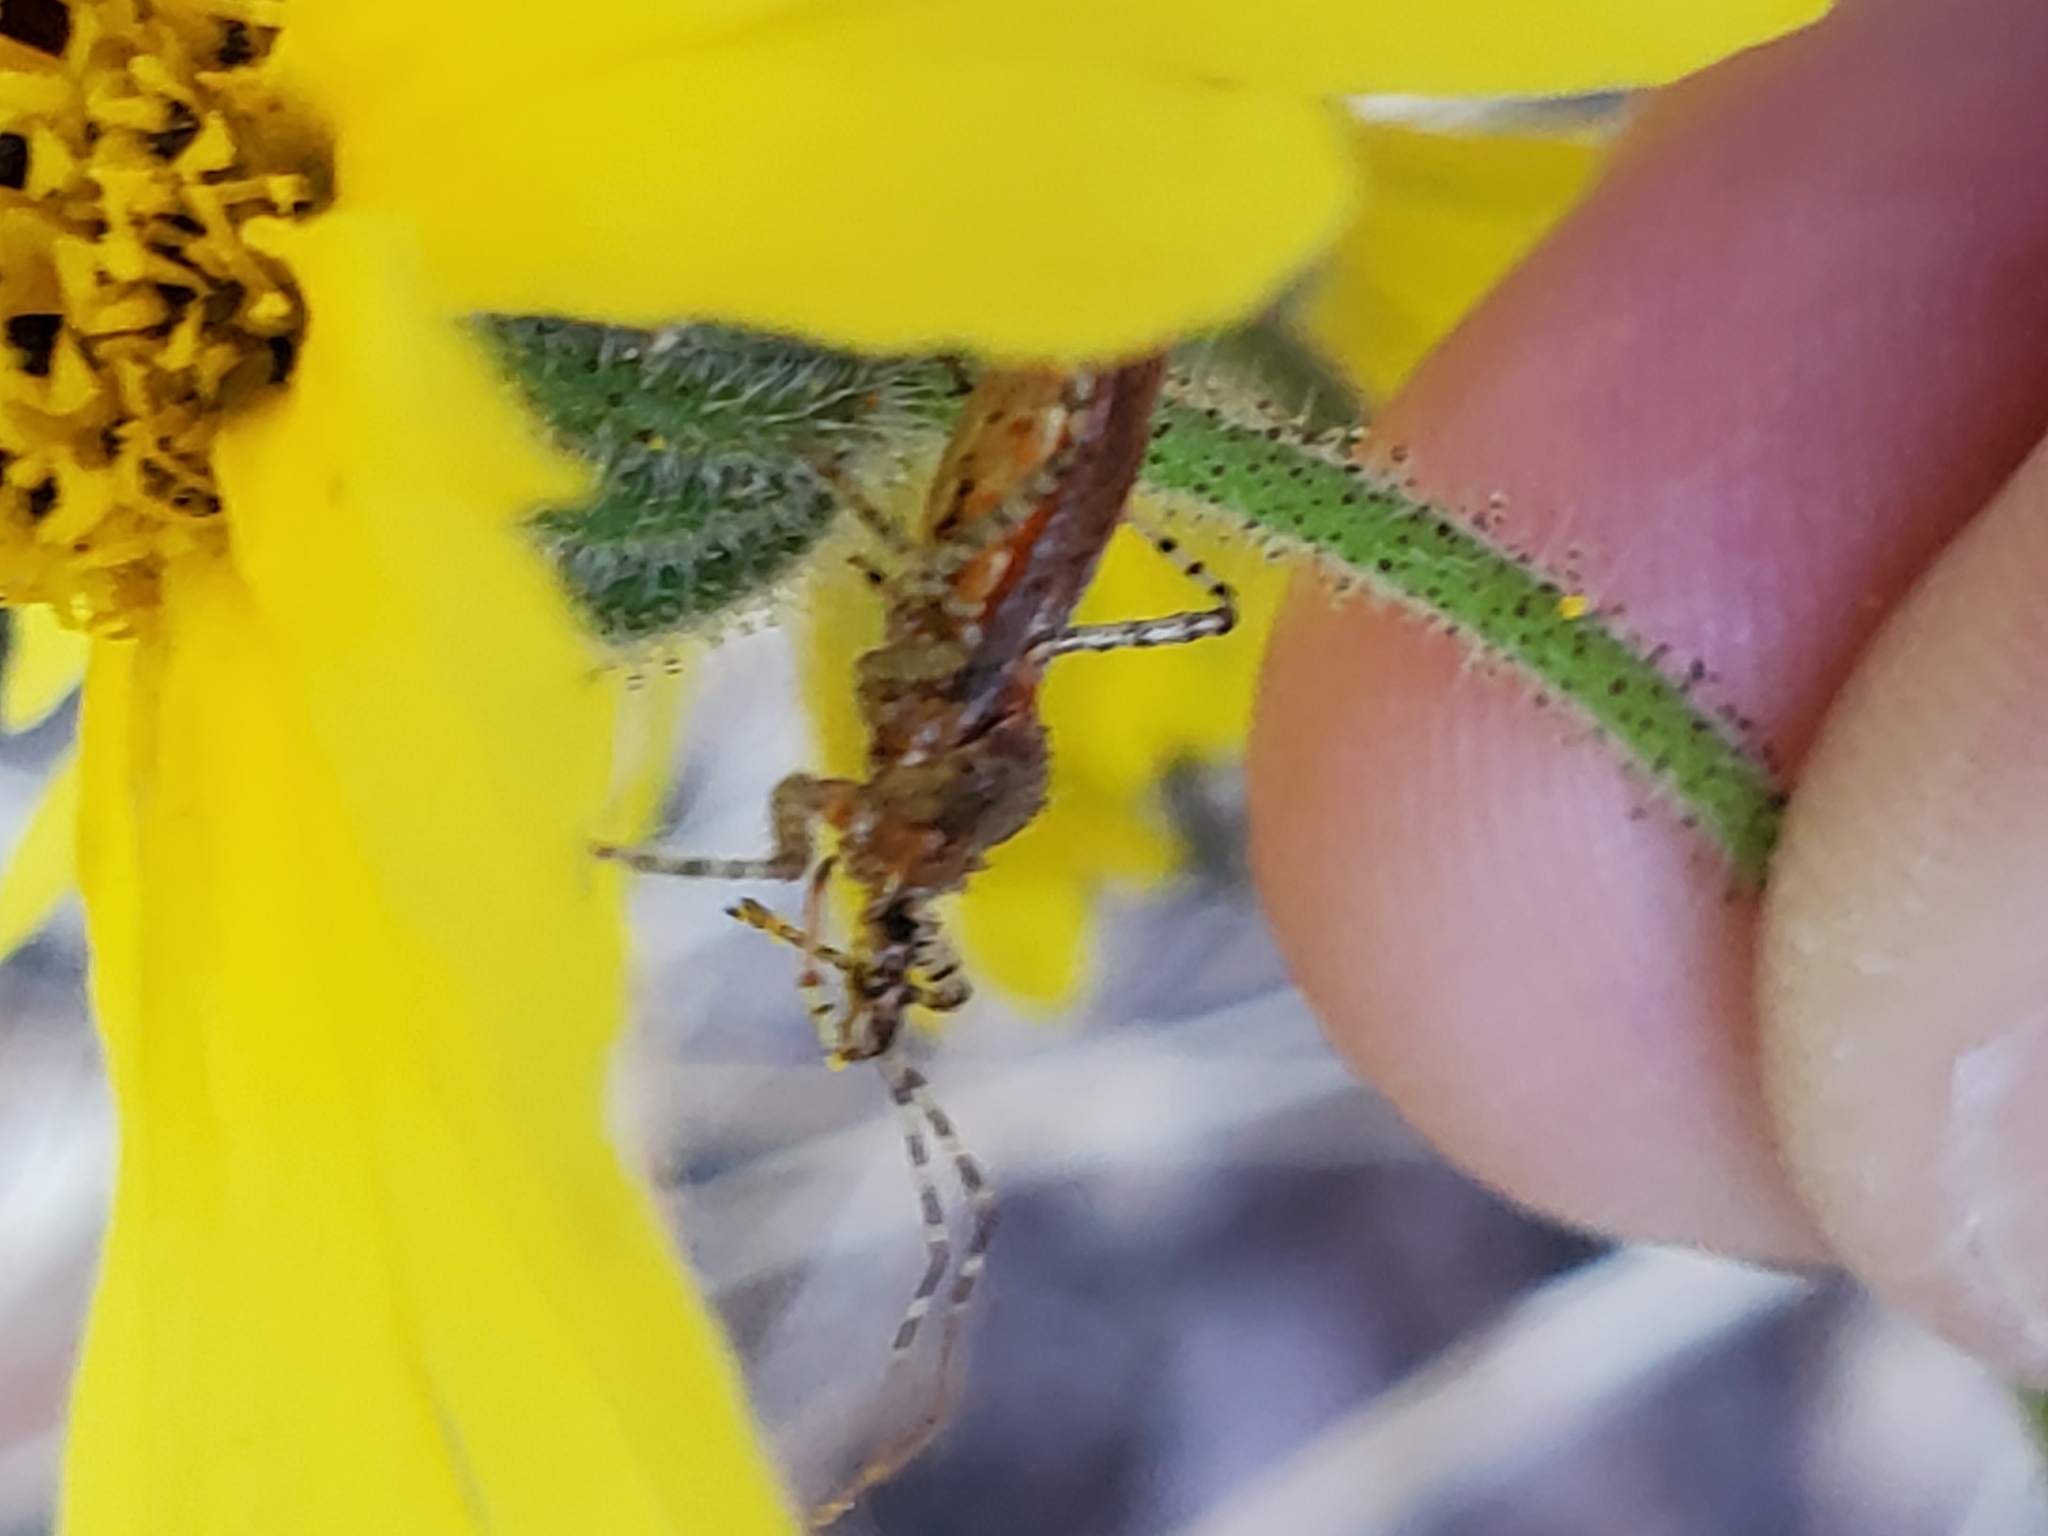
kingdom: Animalia
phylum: Arthropoda
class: Insecta
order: Hemiptera
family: Reduviidae
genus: Pselliopus
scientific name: Pselliopus spinicollis
